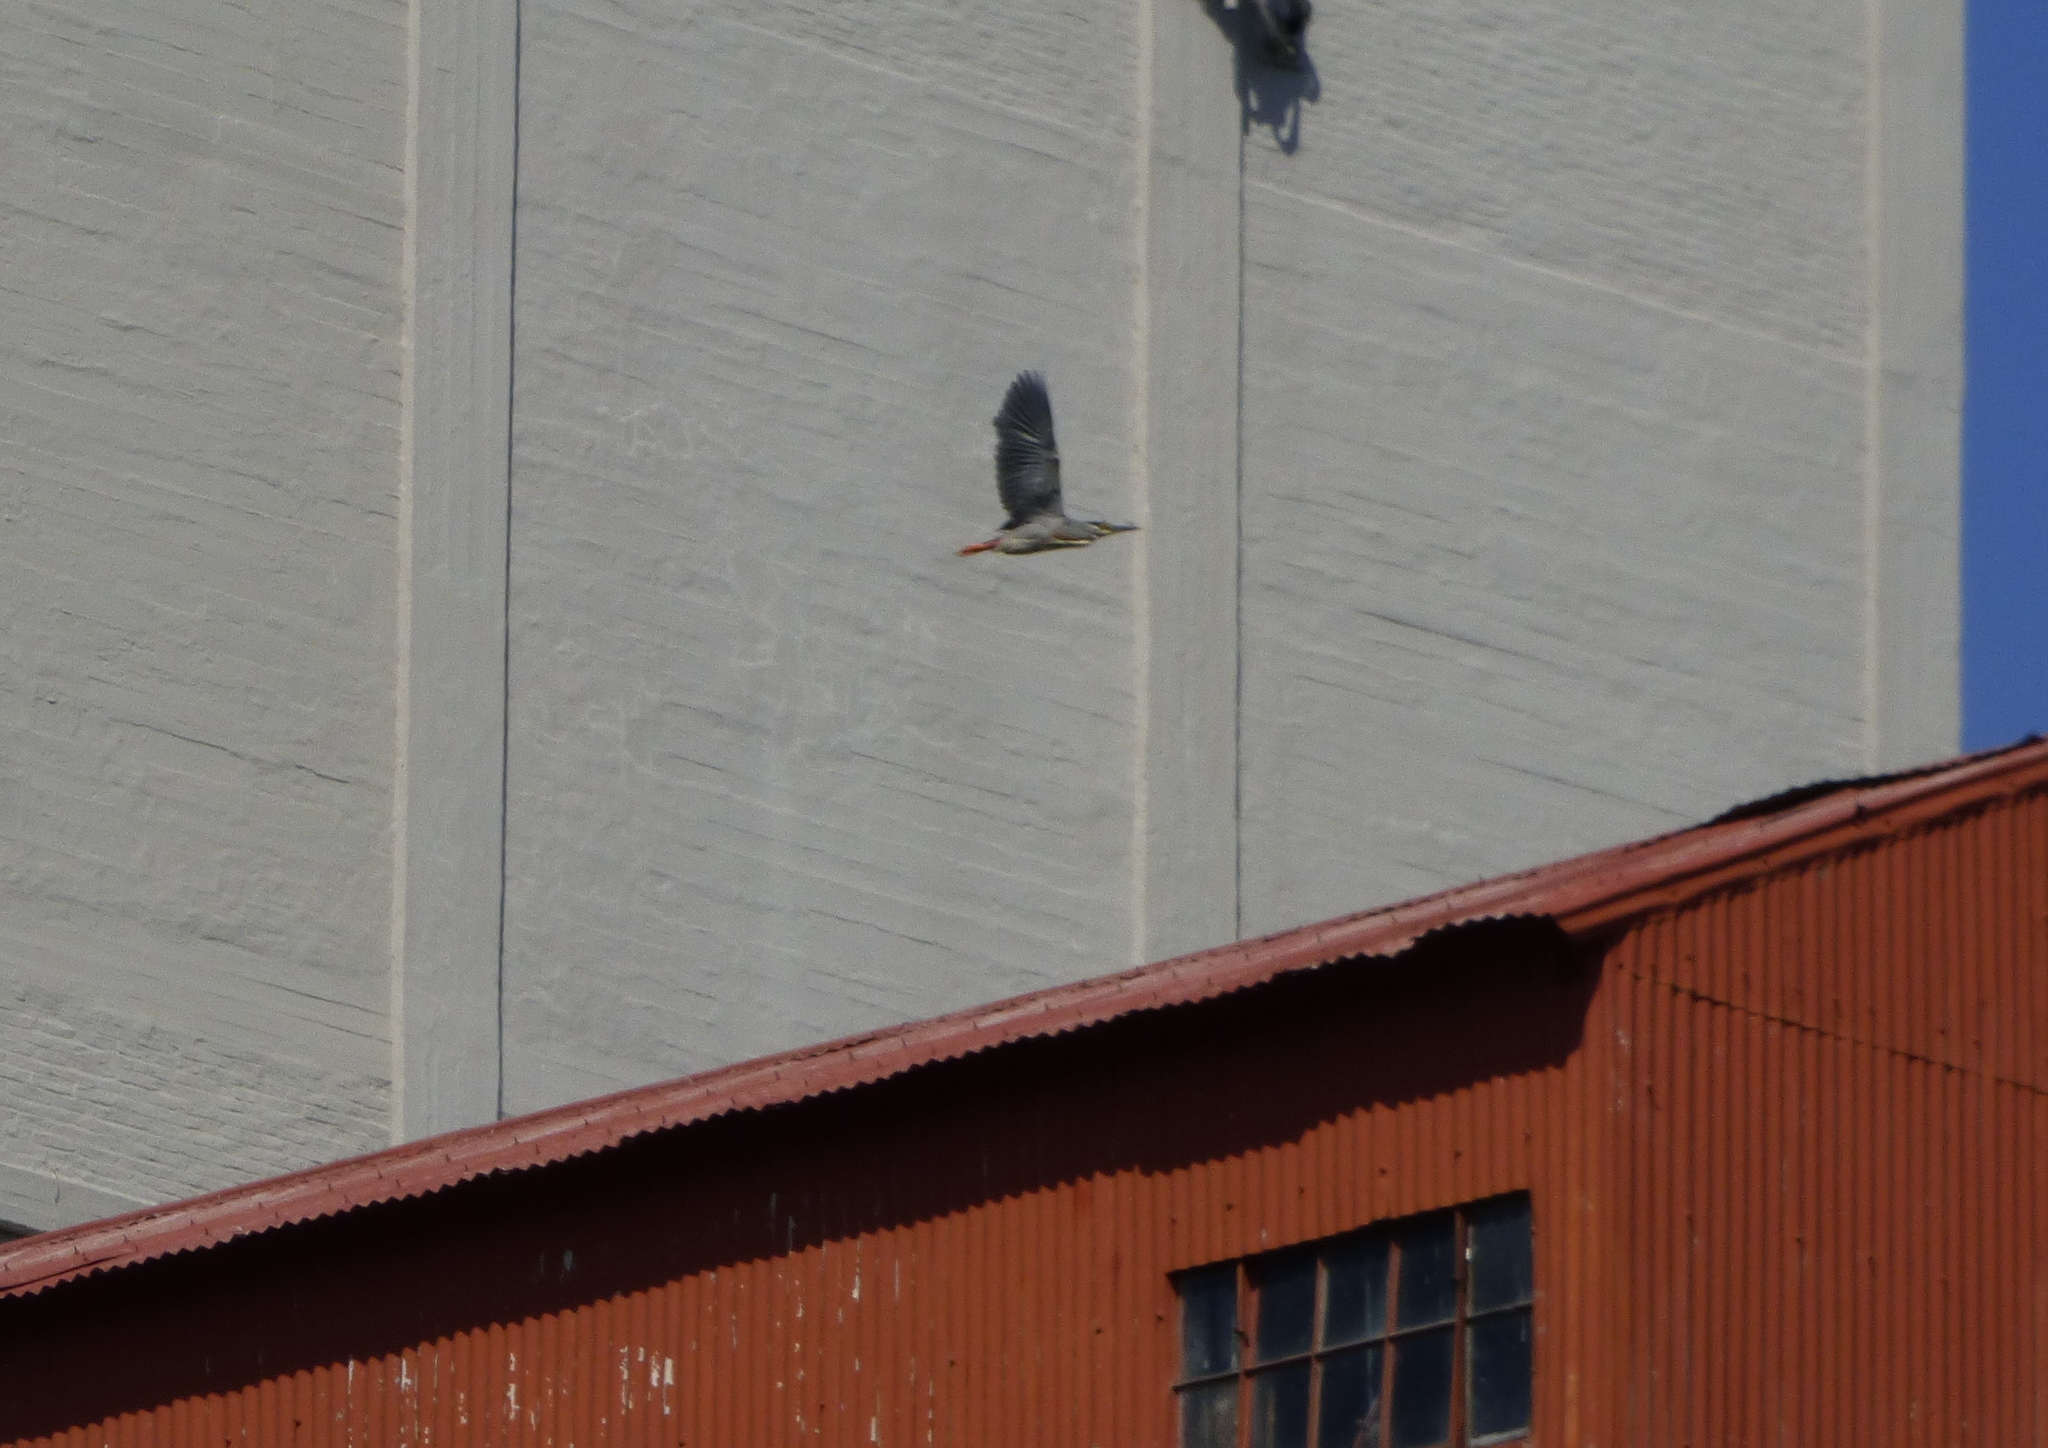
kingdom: Animalia
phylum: Chordata
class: Aves
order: Pelecaniformes
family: Ardeidae
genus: Butorides
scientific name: Butorides striata
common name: Striated heron
